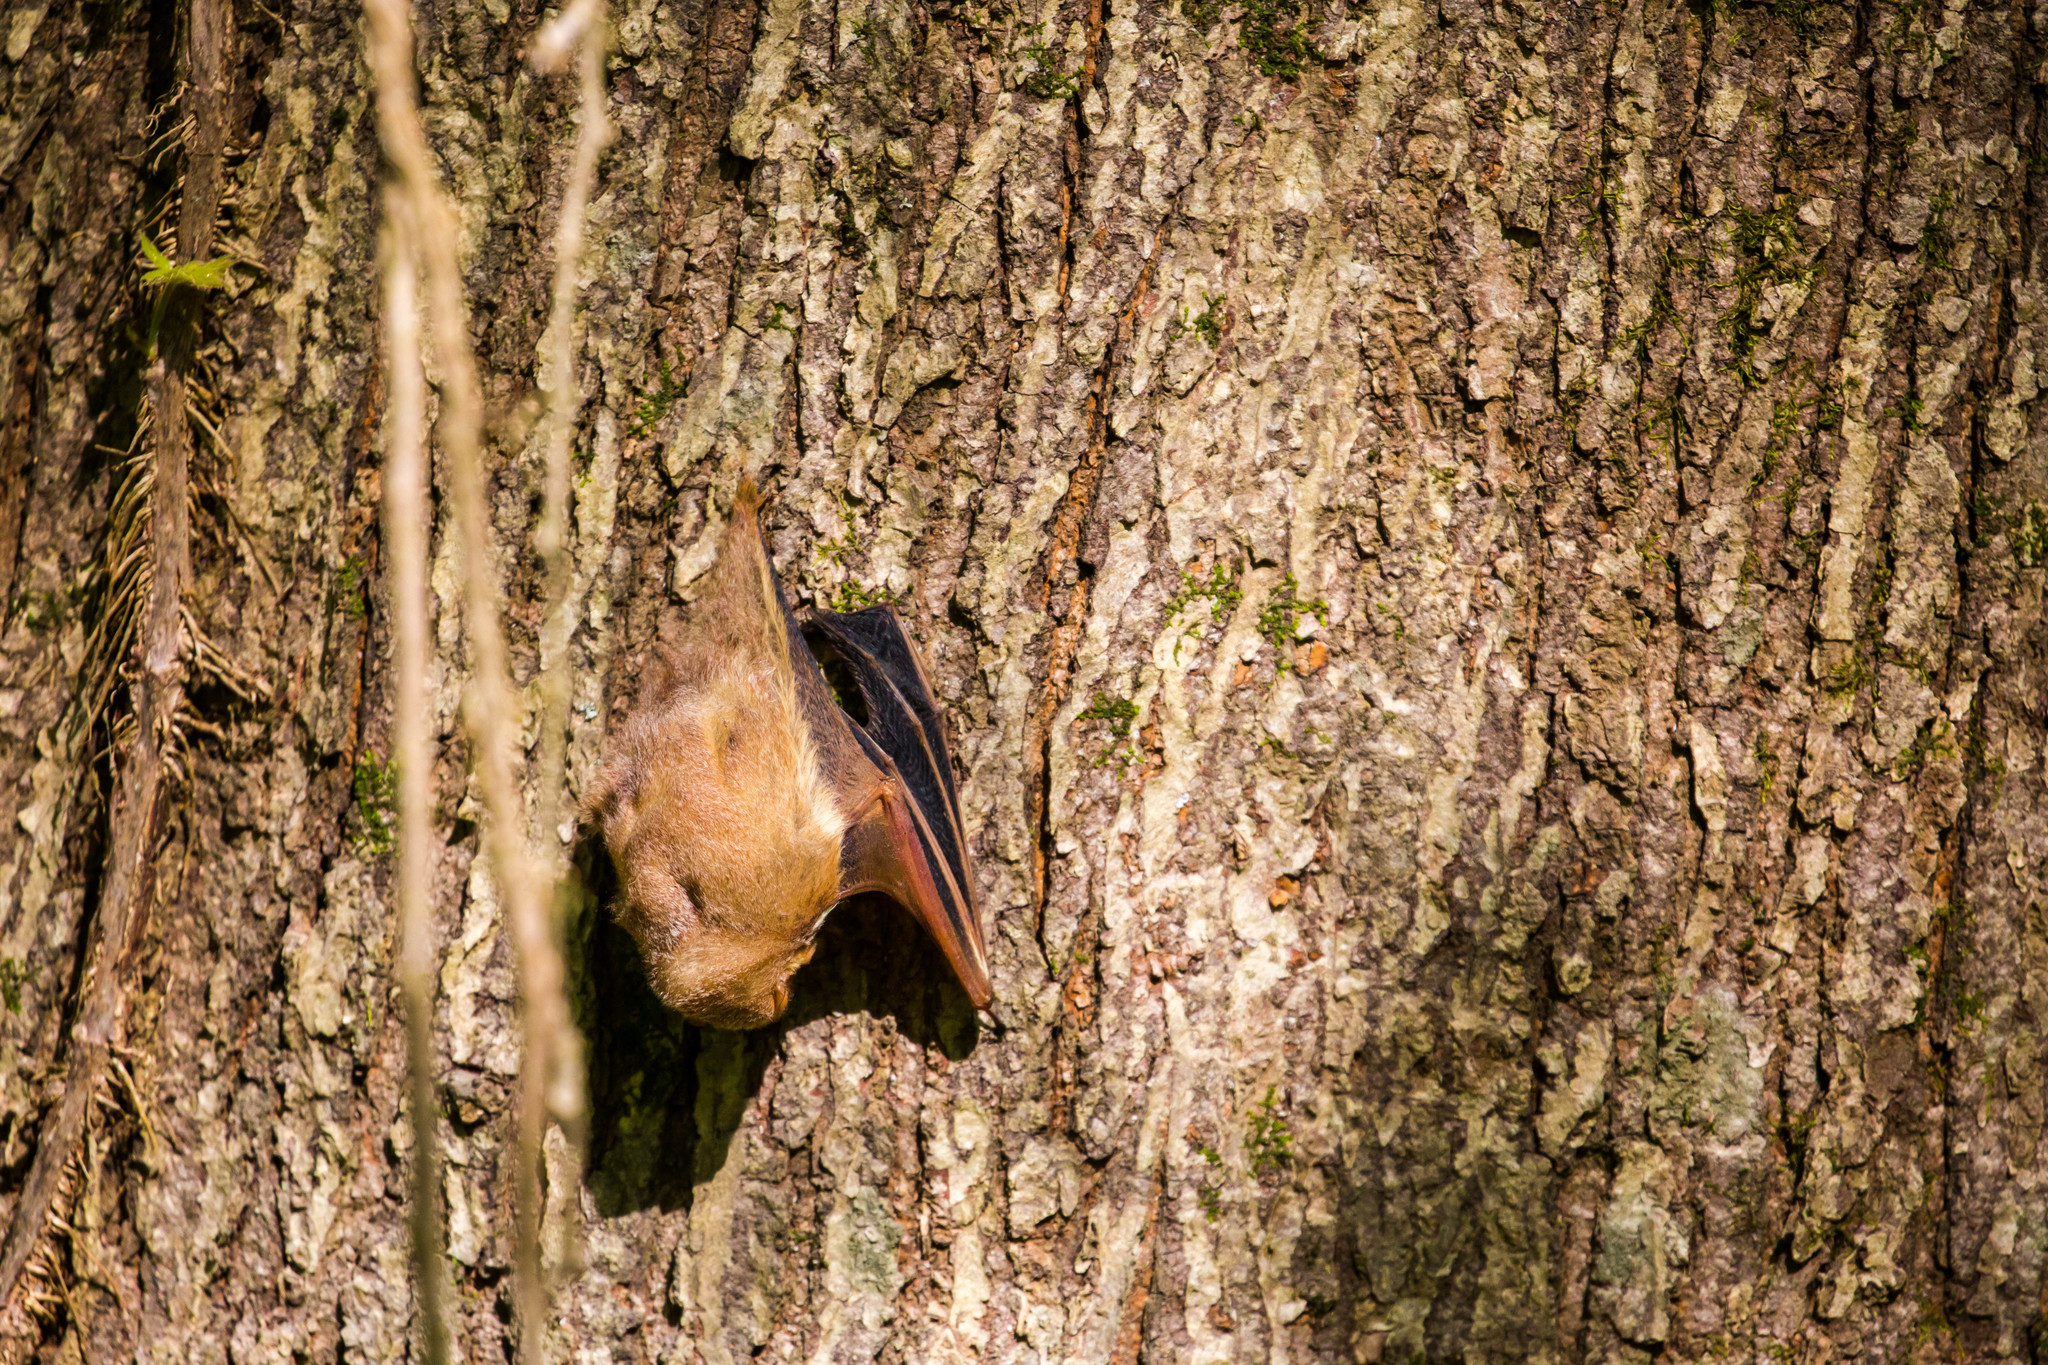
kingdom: Animalia
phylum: Chordata
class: Mammalia
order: Chiroptera
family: Vespertilionidae
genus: Lasiurus
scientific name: Lasiurus borealis
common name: Eastern red bat
